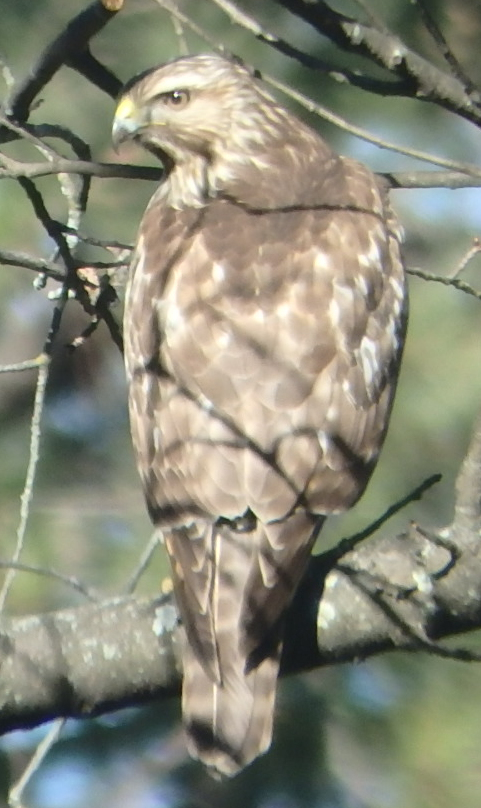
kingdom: Animalia
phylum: Chordata
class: Aves
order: Accipitriformes
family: Accipitridae
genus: Buteo
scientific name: Buteo lineatus
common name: Red-shouldered hawk
